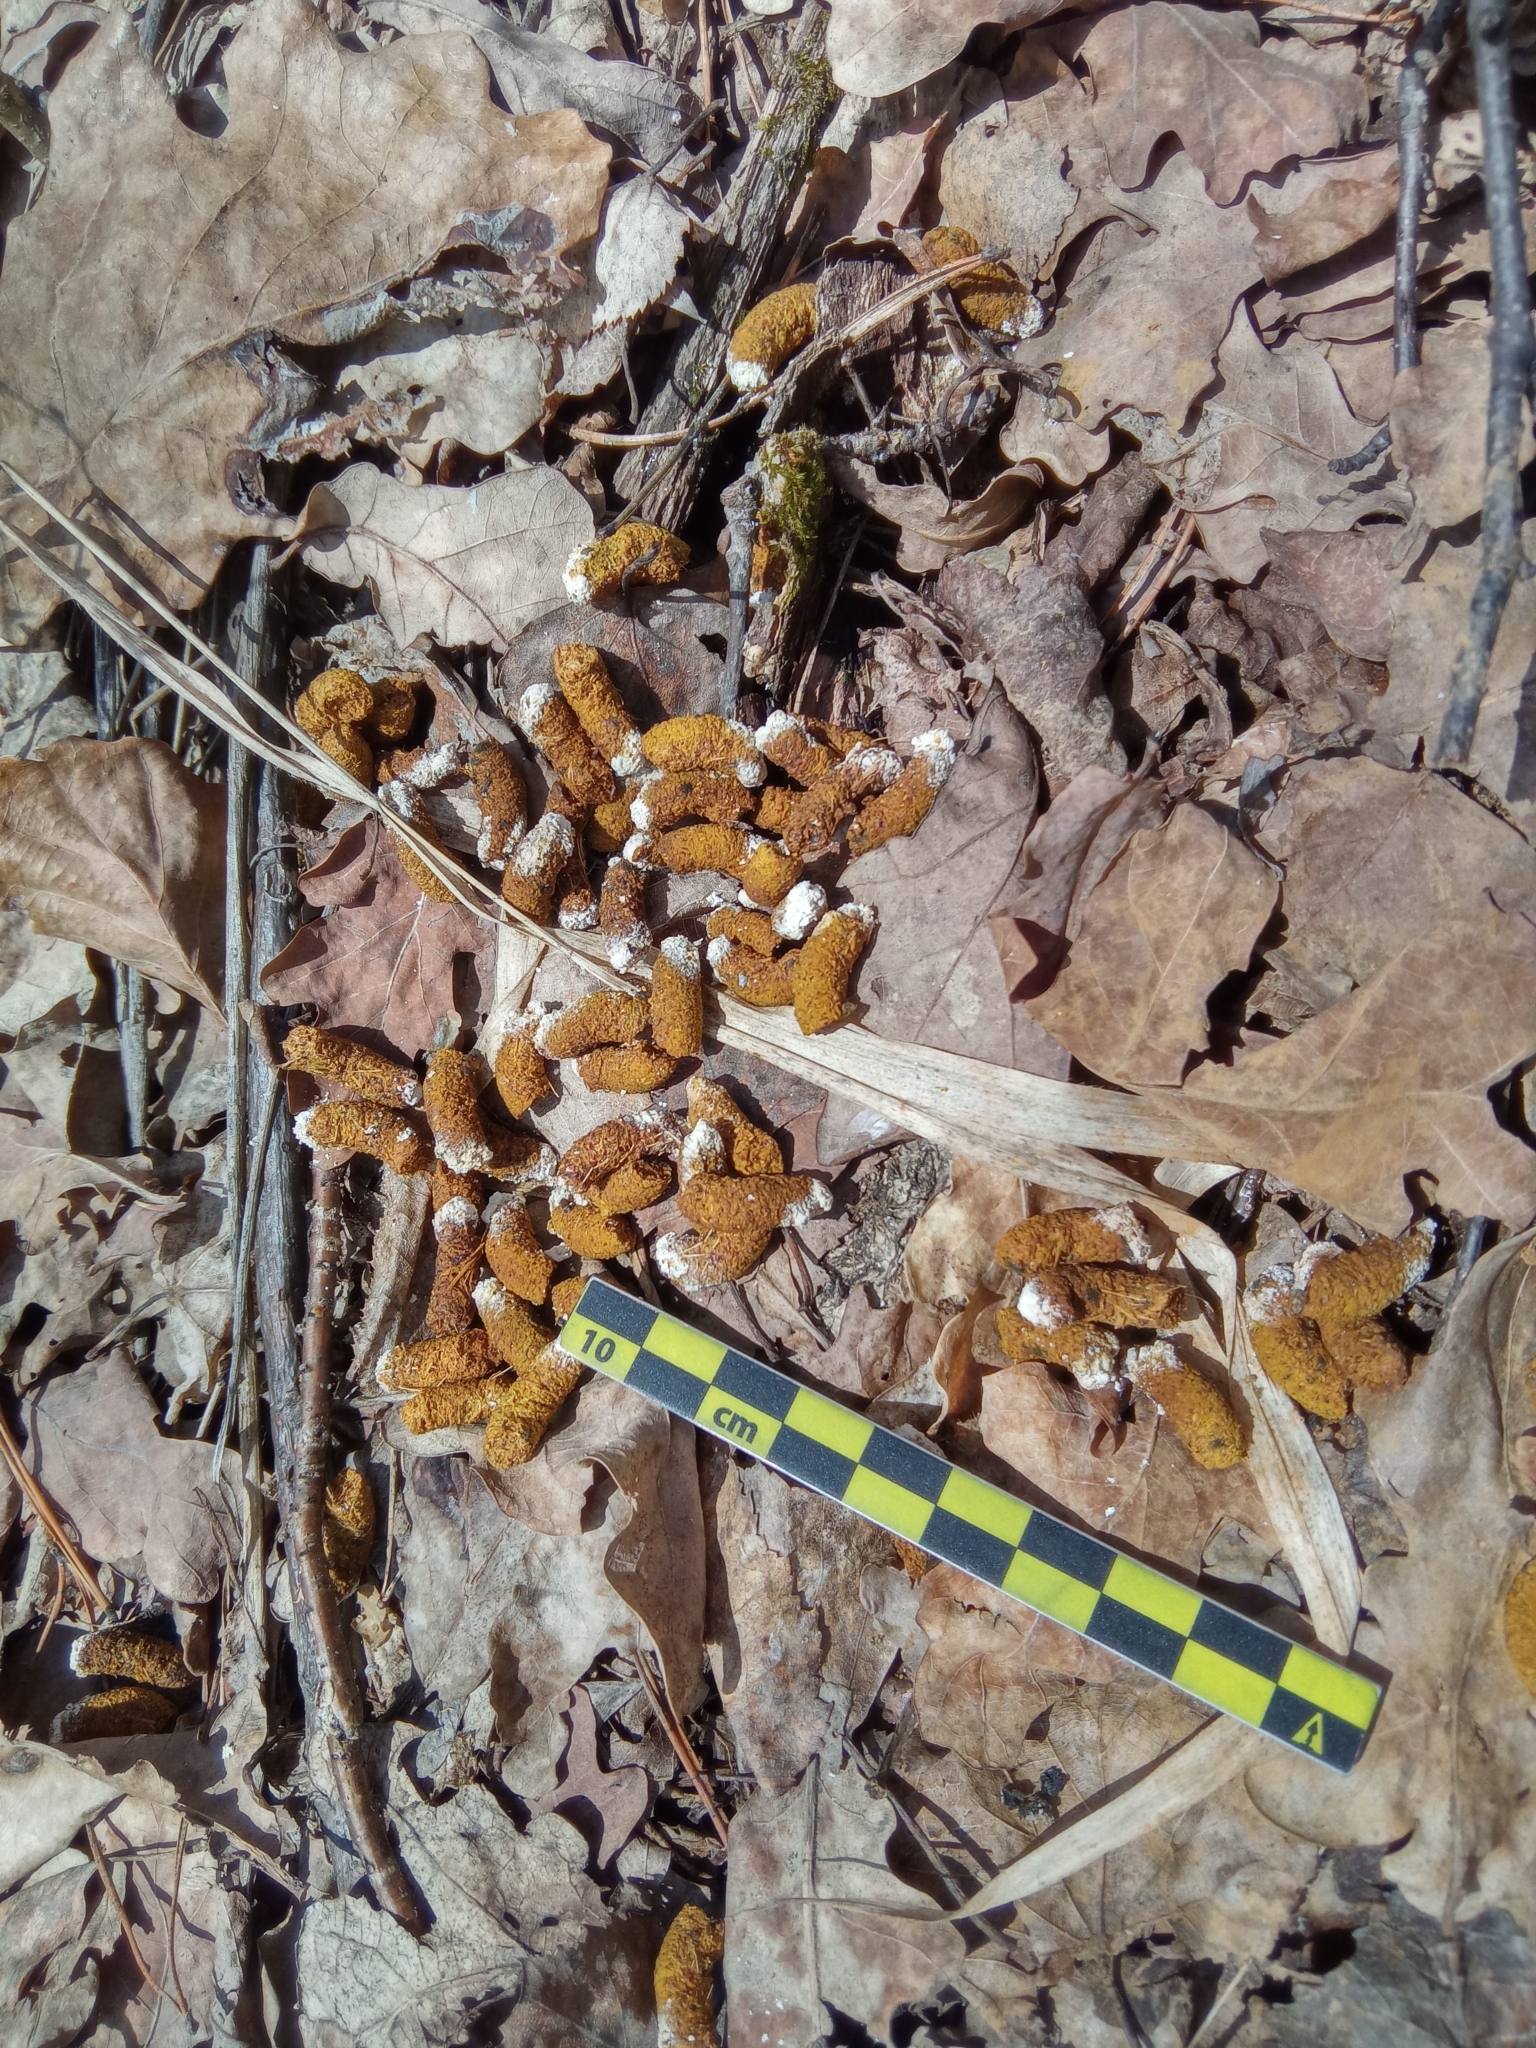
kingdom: Animalia
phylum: Chordata
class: Aves
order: Galliformes
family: Phasianidae
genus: Tetrastes
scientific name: Tetrastes bonasia
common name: Hazel grouse
